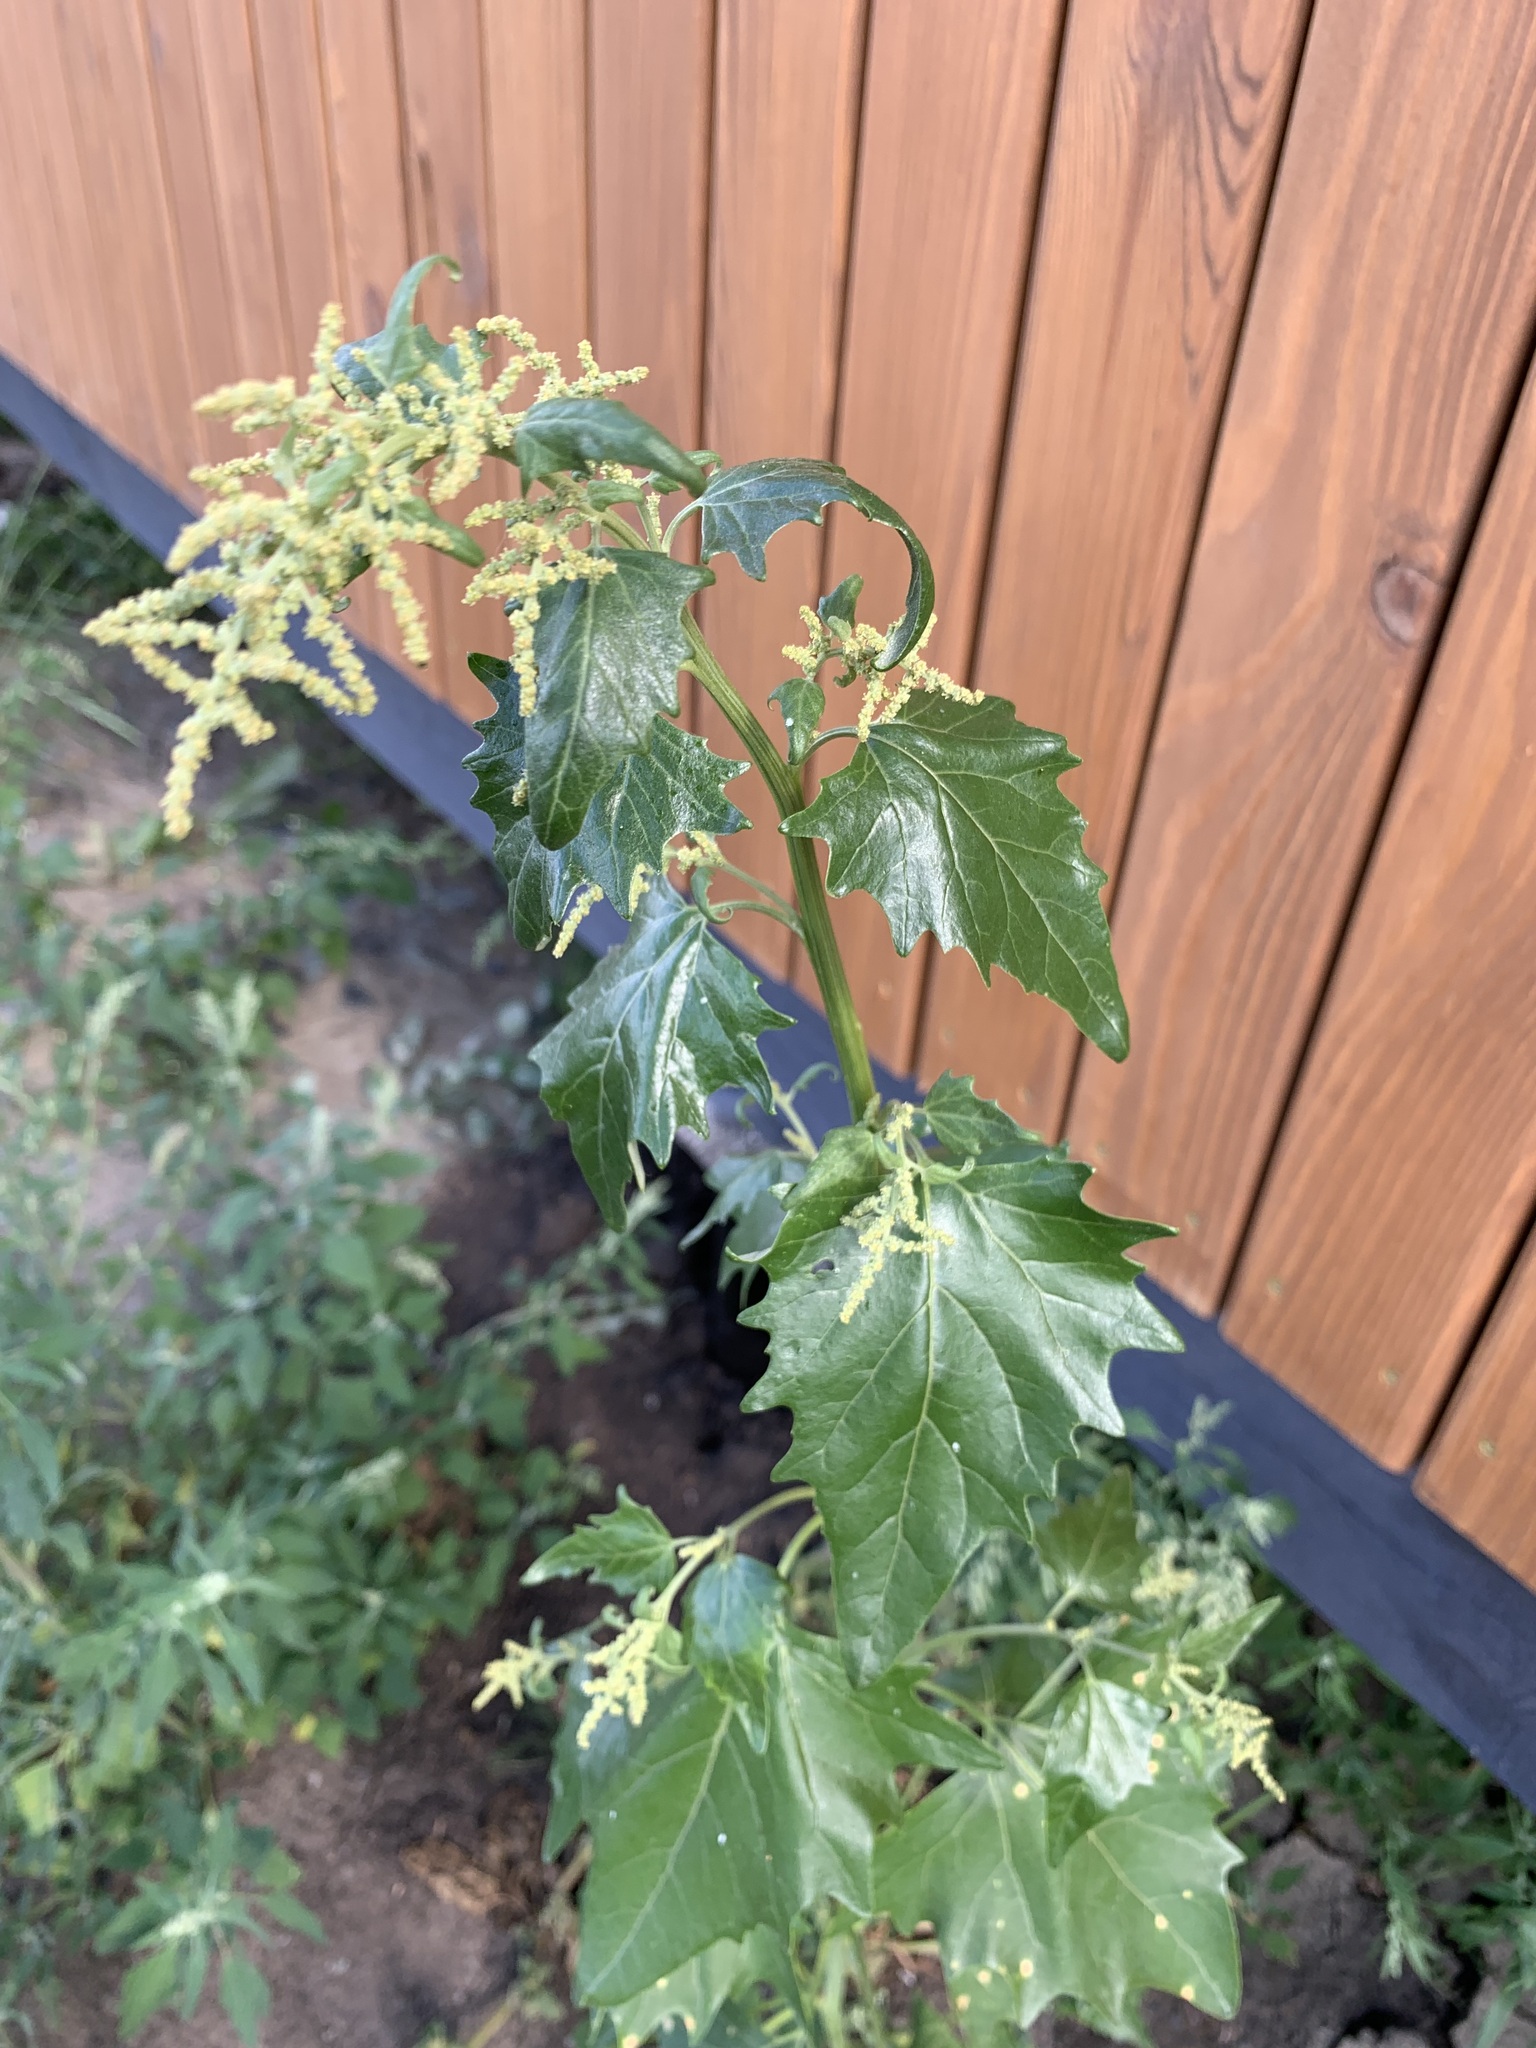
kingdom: Plantae
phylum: Tracheophyta
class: Magnoliopsida
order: Caryophyllales
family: Amaranthaceae
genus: Atriplex
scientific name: Atriplex sagittata
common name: Purple orache
